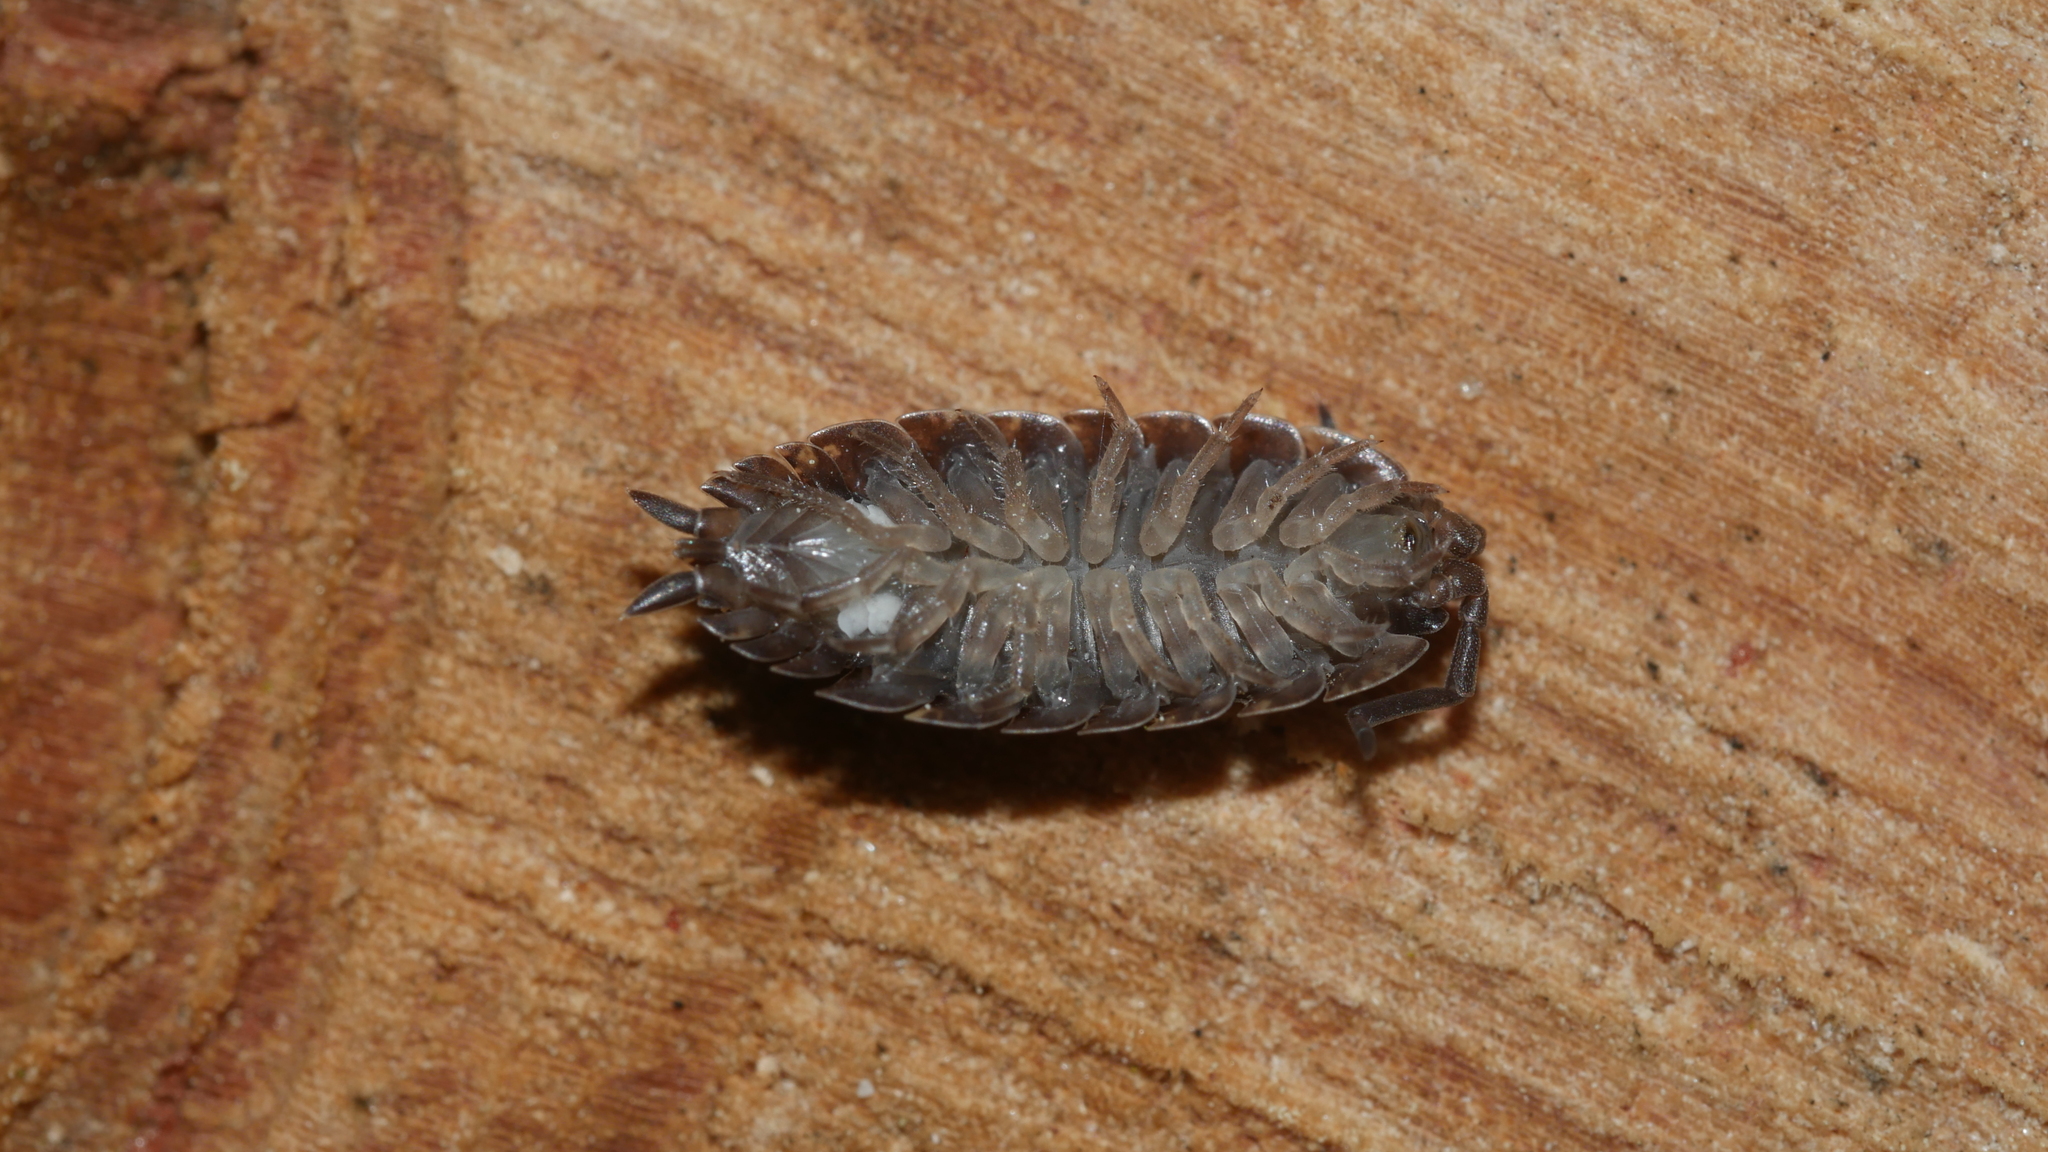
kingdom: Animalia
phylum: Arthropoda
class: Malacostraca
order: Isopoda
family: Porcellionidae
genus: Porcellio
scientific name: Porcellio scaber
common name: Common rough woodlouse
